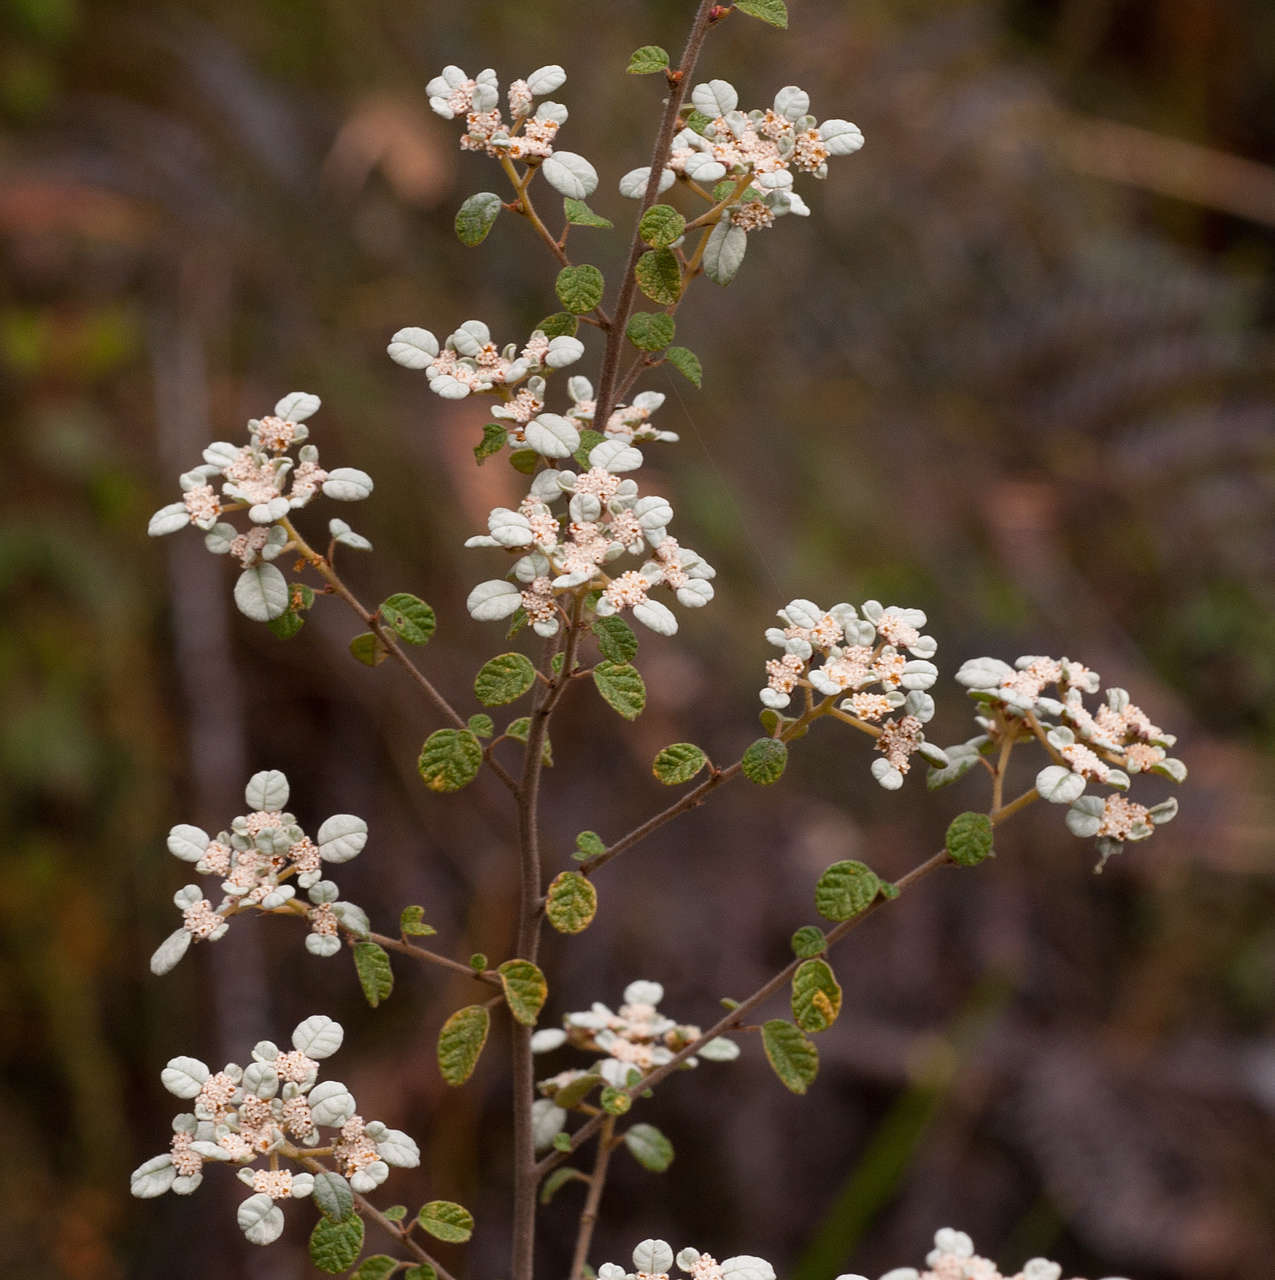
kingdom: Plantae
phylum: Tracheophyta
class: Magnoliopsida
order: Rosales
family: Rhamnaceae
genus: Spyridium
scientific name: Spyridium parvifolium
